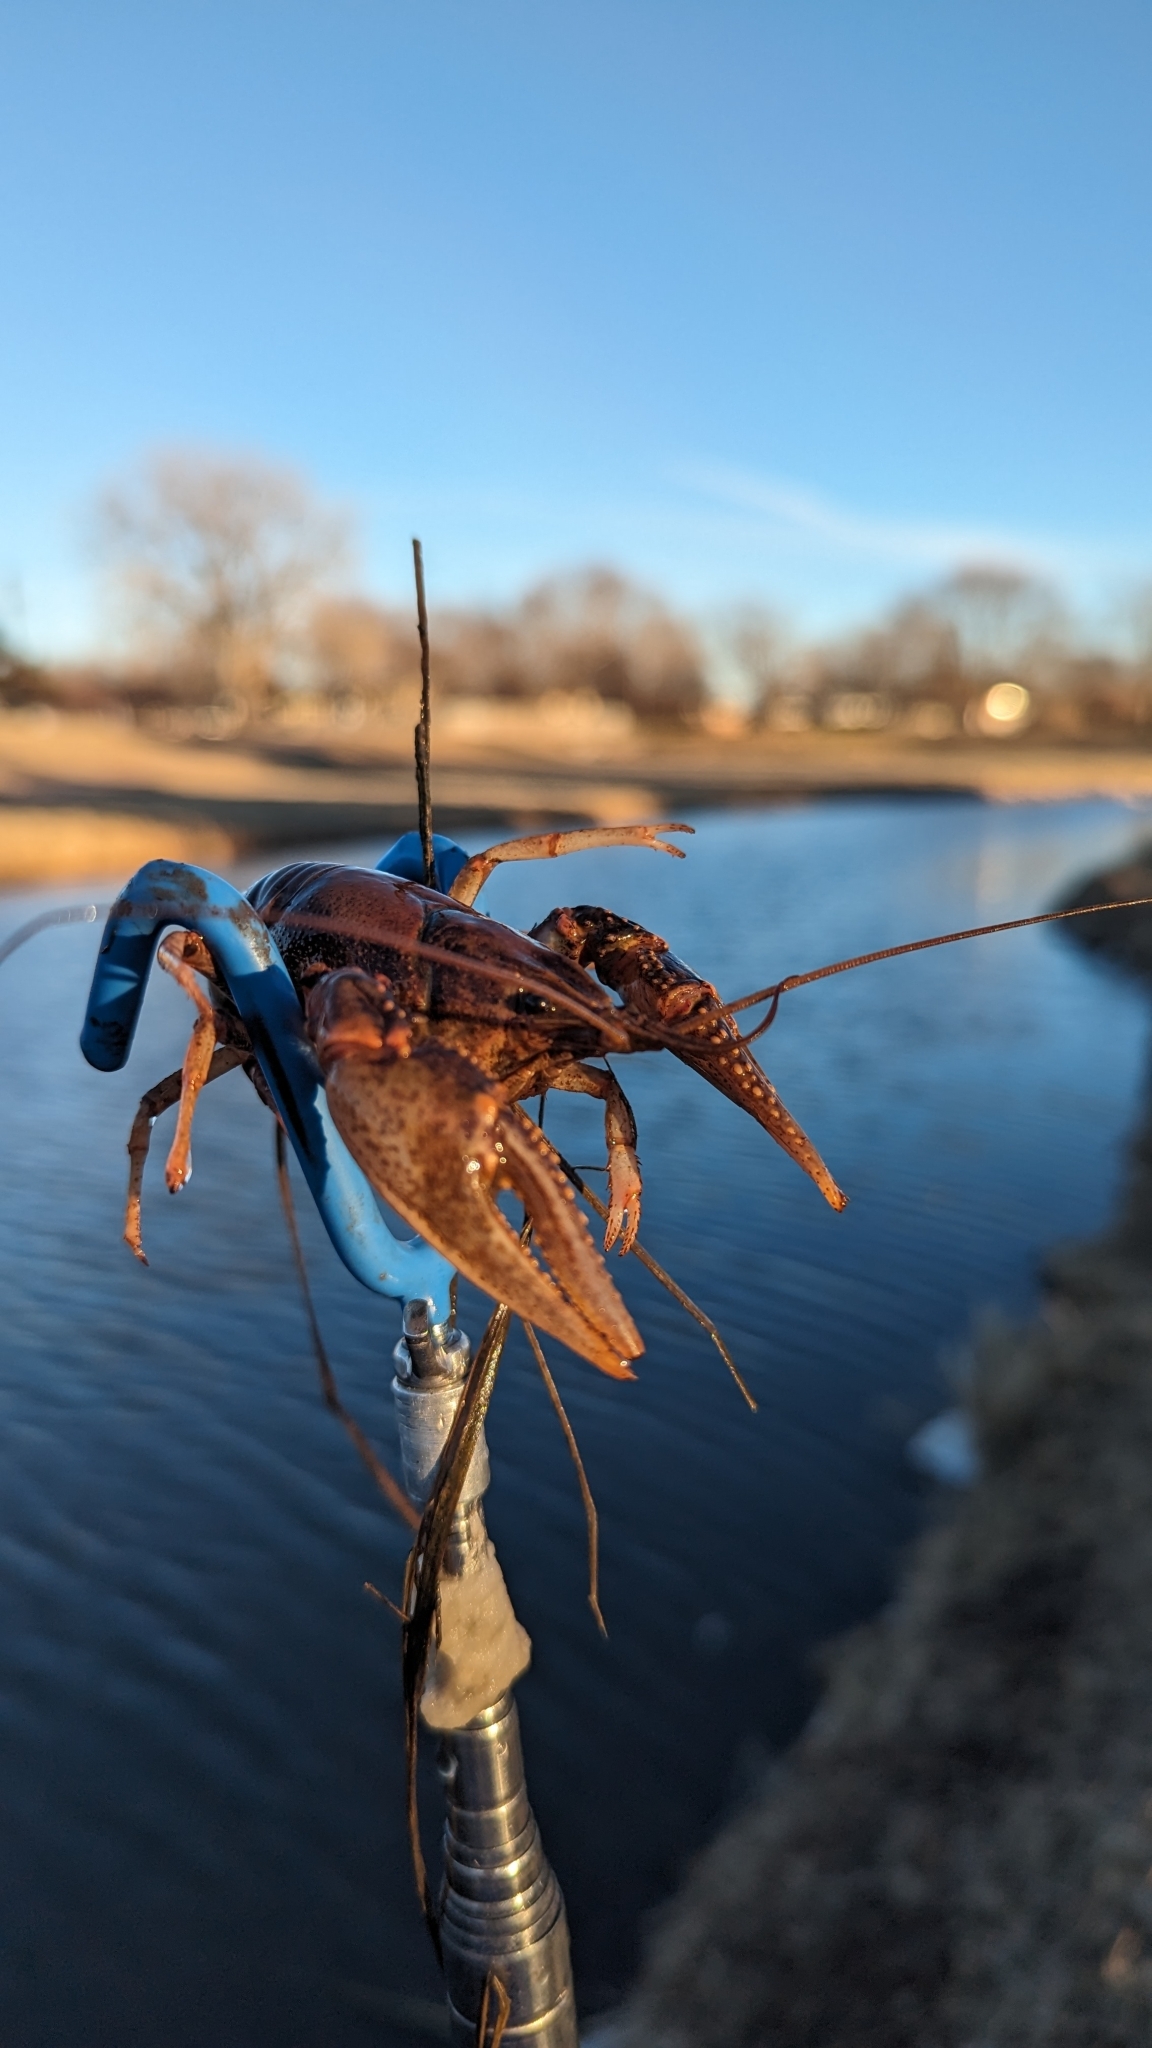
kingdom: Animalia
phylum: Arthropoda
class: Malacostraca
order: Decapoda
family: Cambaridae
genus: Faxonius
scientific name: Faxonius virilis
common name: Virile crayfish
